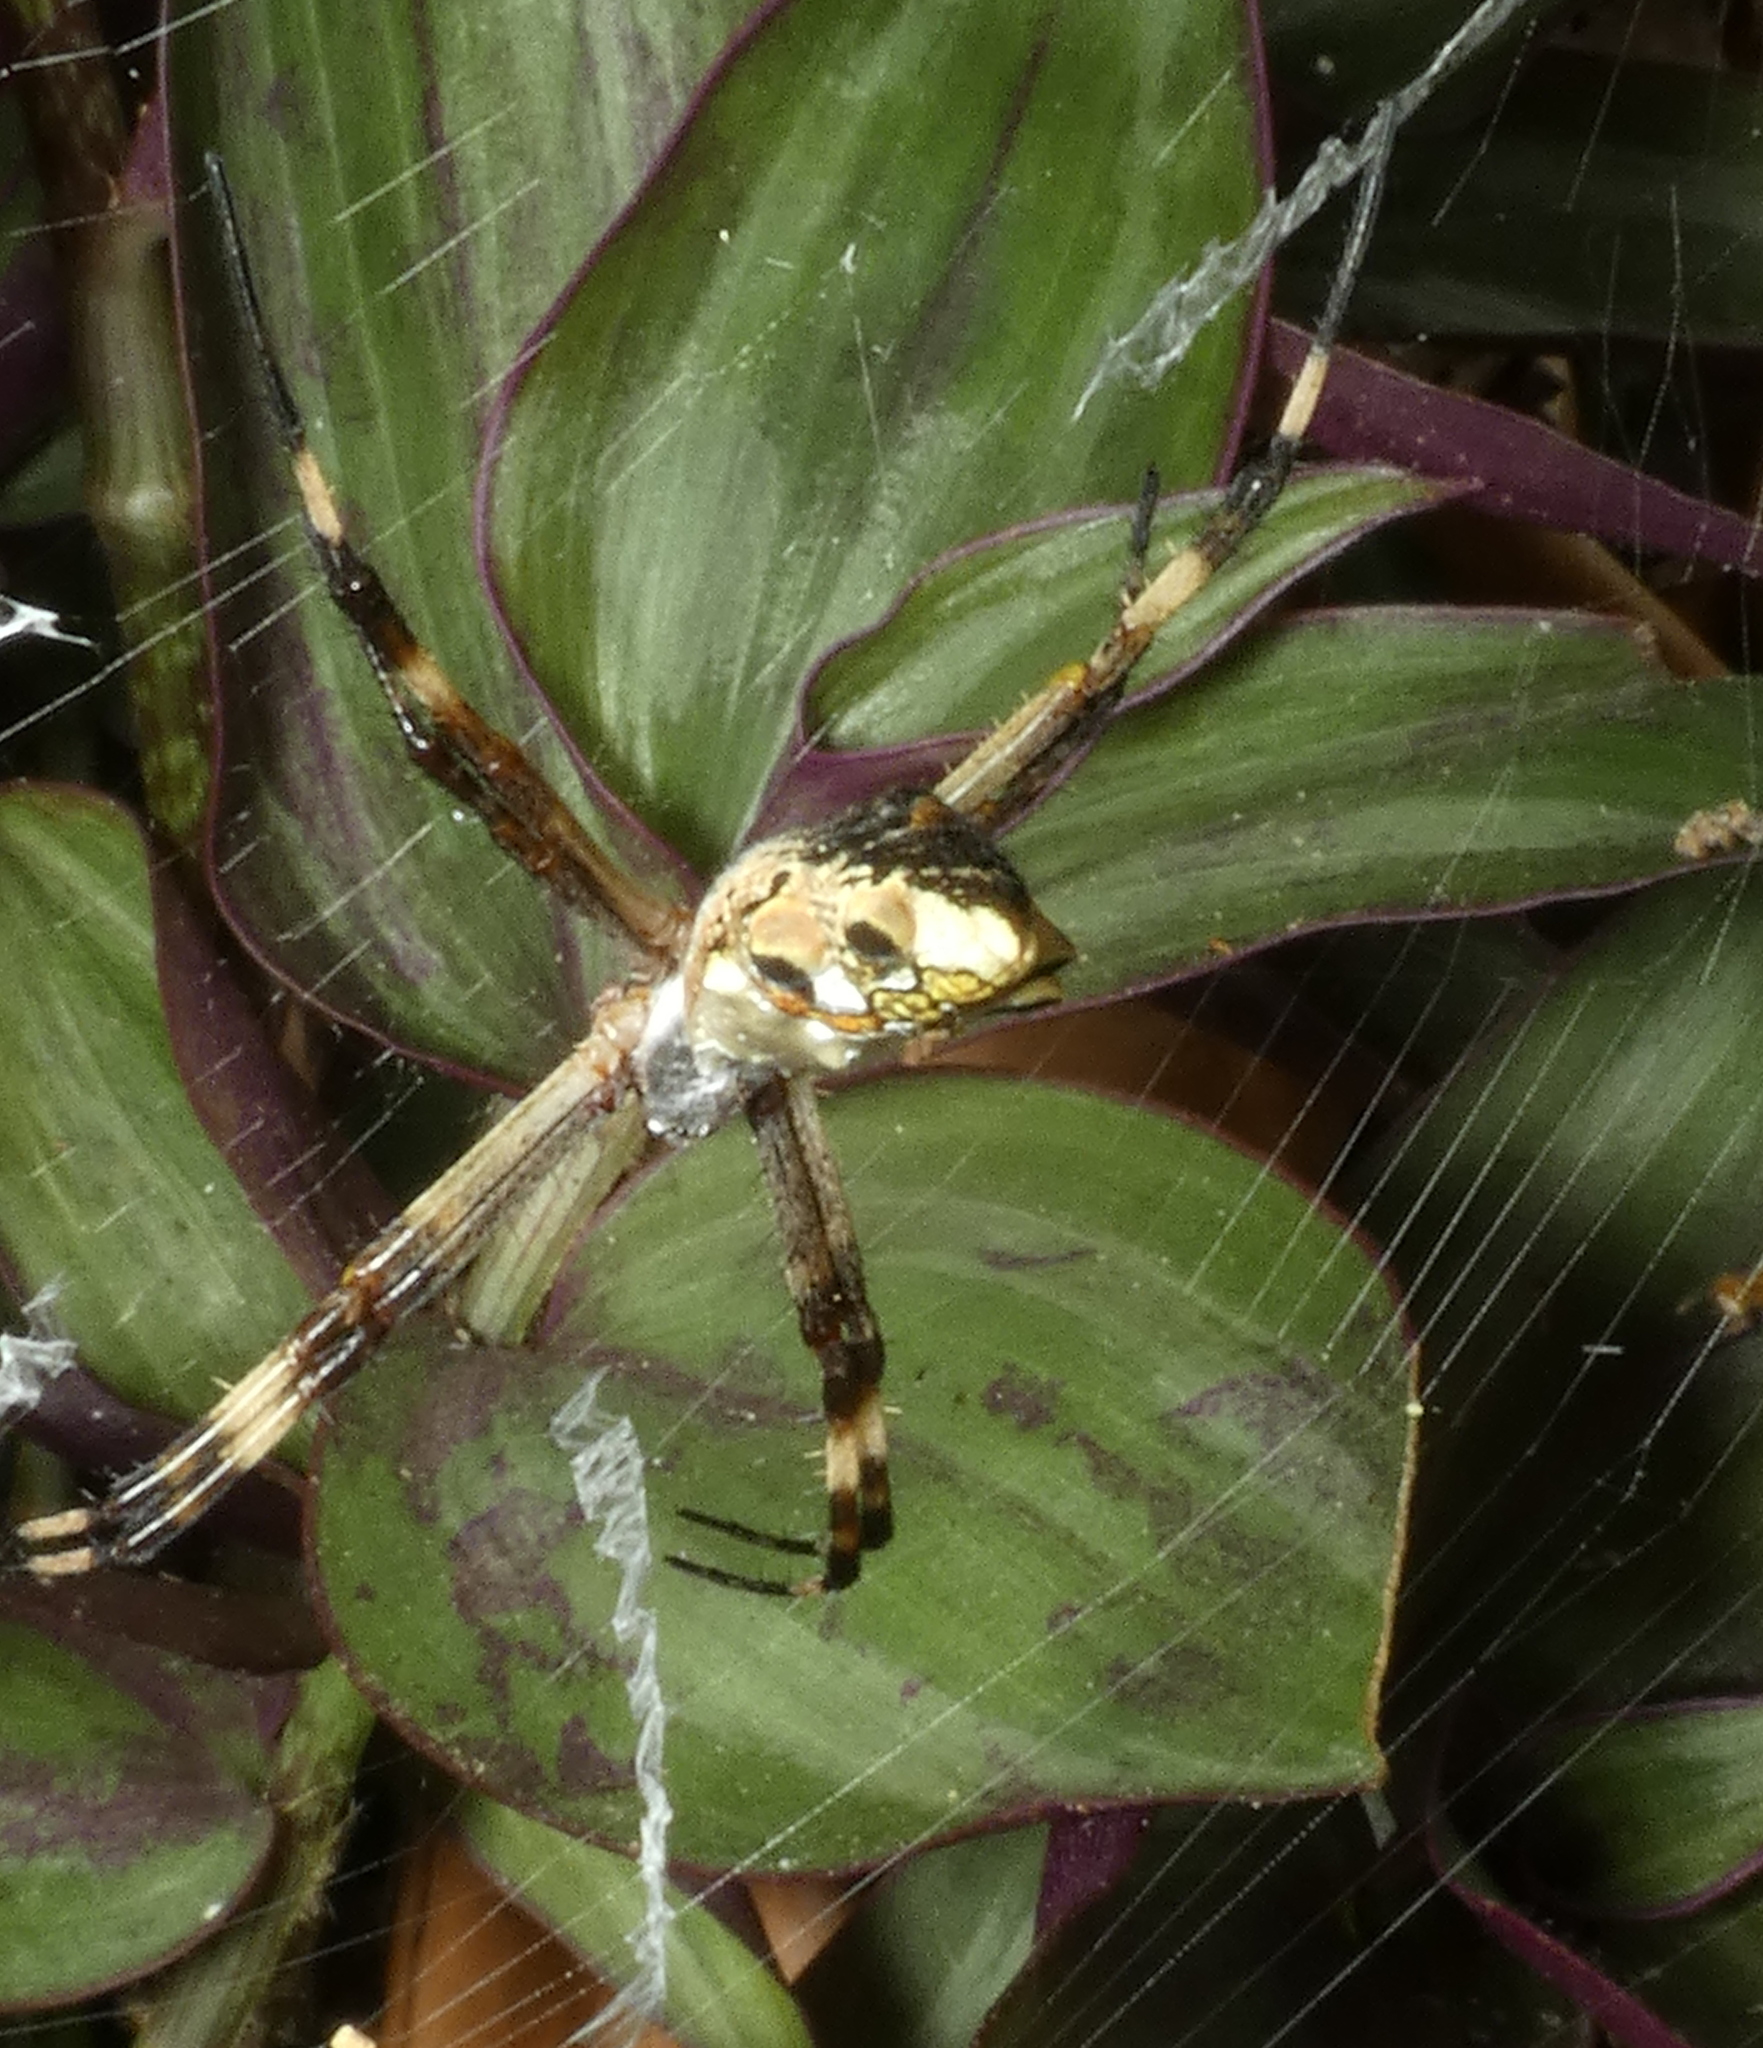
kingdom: Animalia
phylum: Arthropoda
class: Arachnida
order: Araneae
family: Araneidae
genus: Argiope
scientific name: Argiope argentata
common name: Orb weavers
